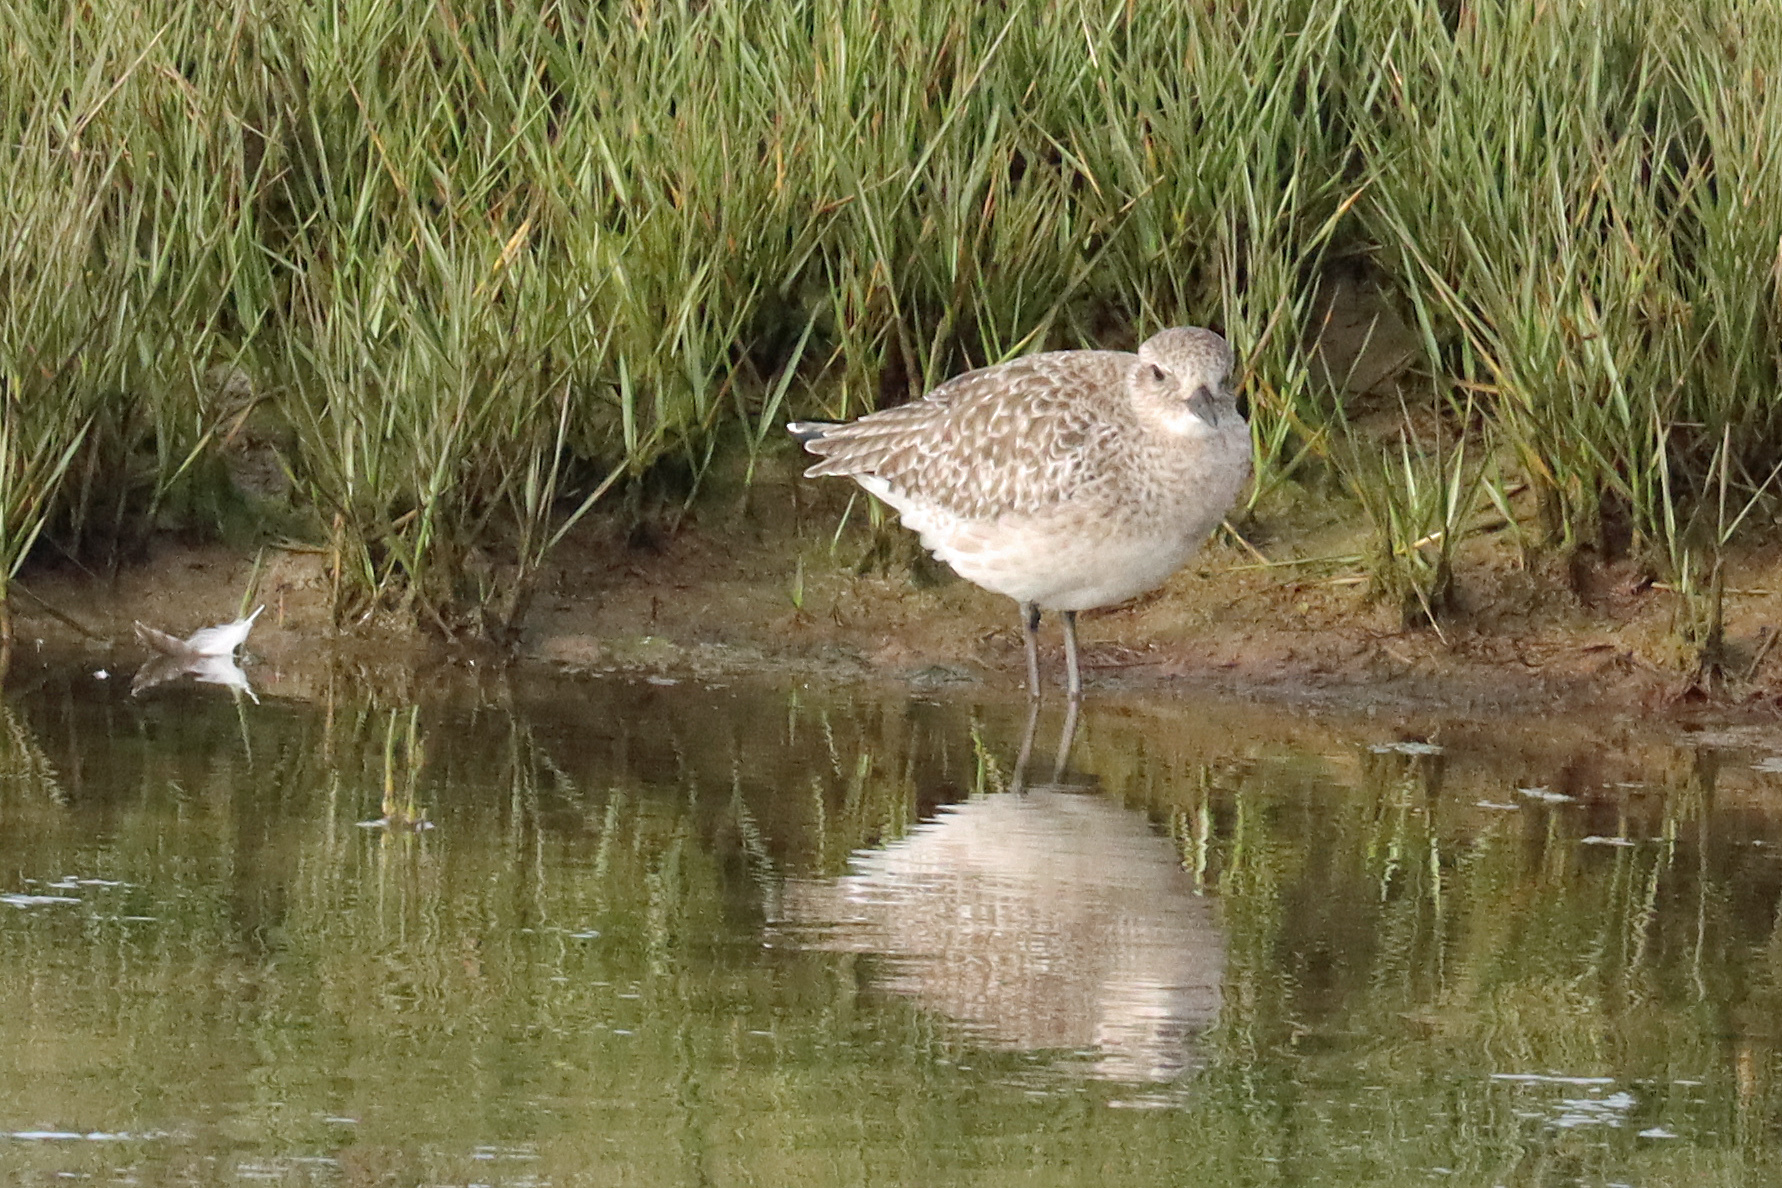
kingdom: Animalia
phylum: Chordata
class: Aves
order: Charadriiformes
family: Charadriidae
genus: Pluvialis
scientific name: Pluvialis squatarola
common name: Grey plover
